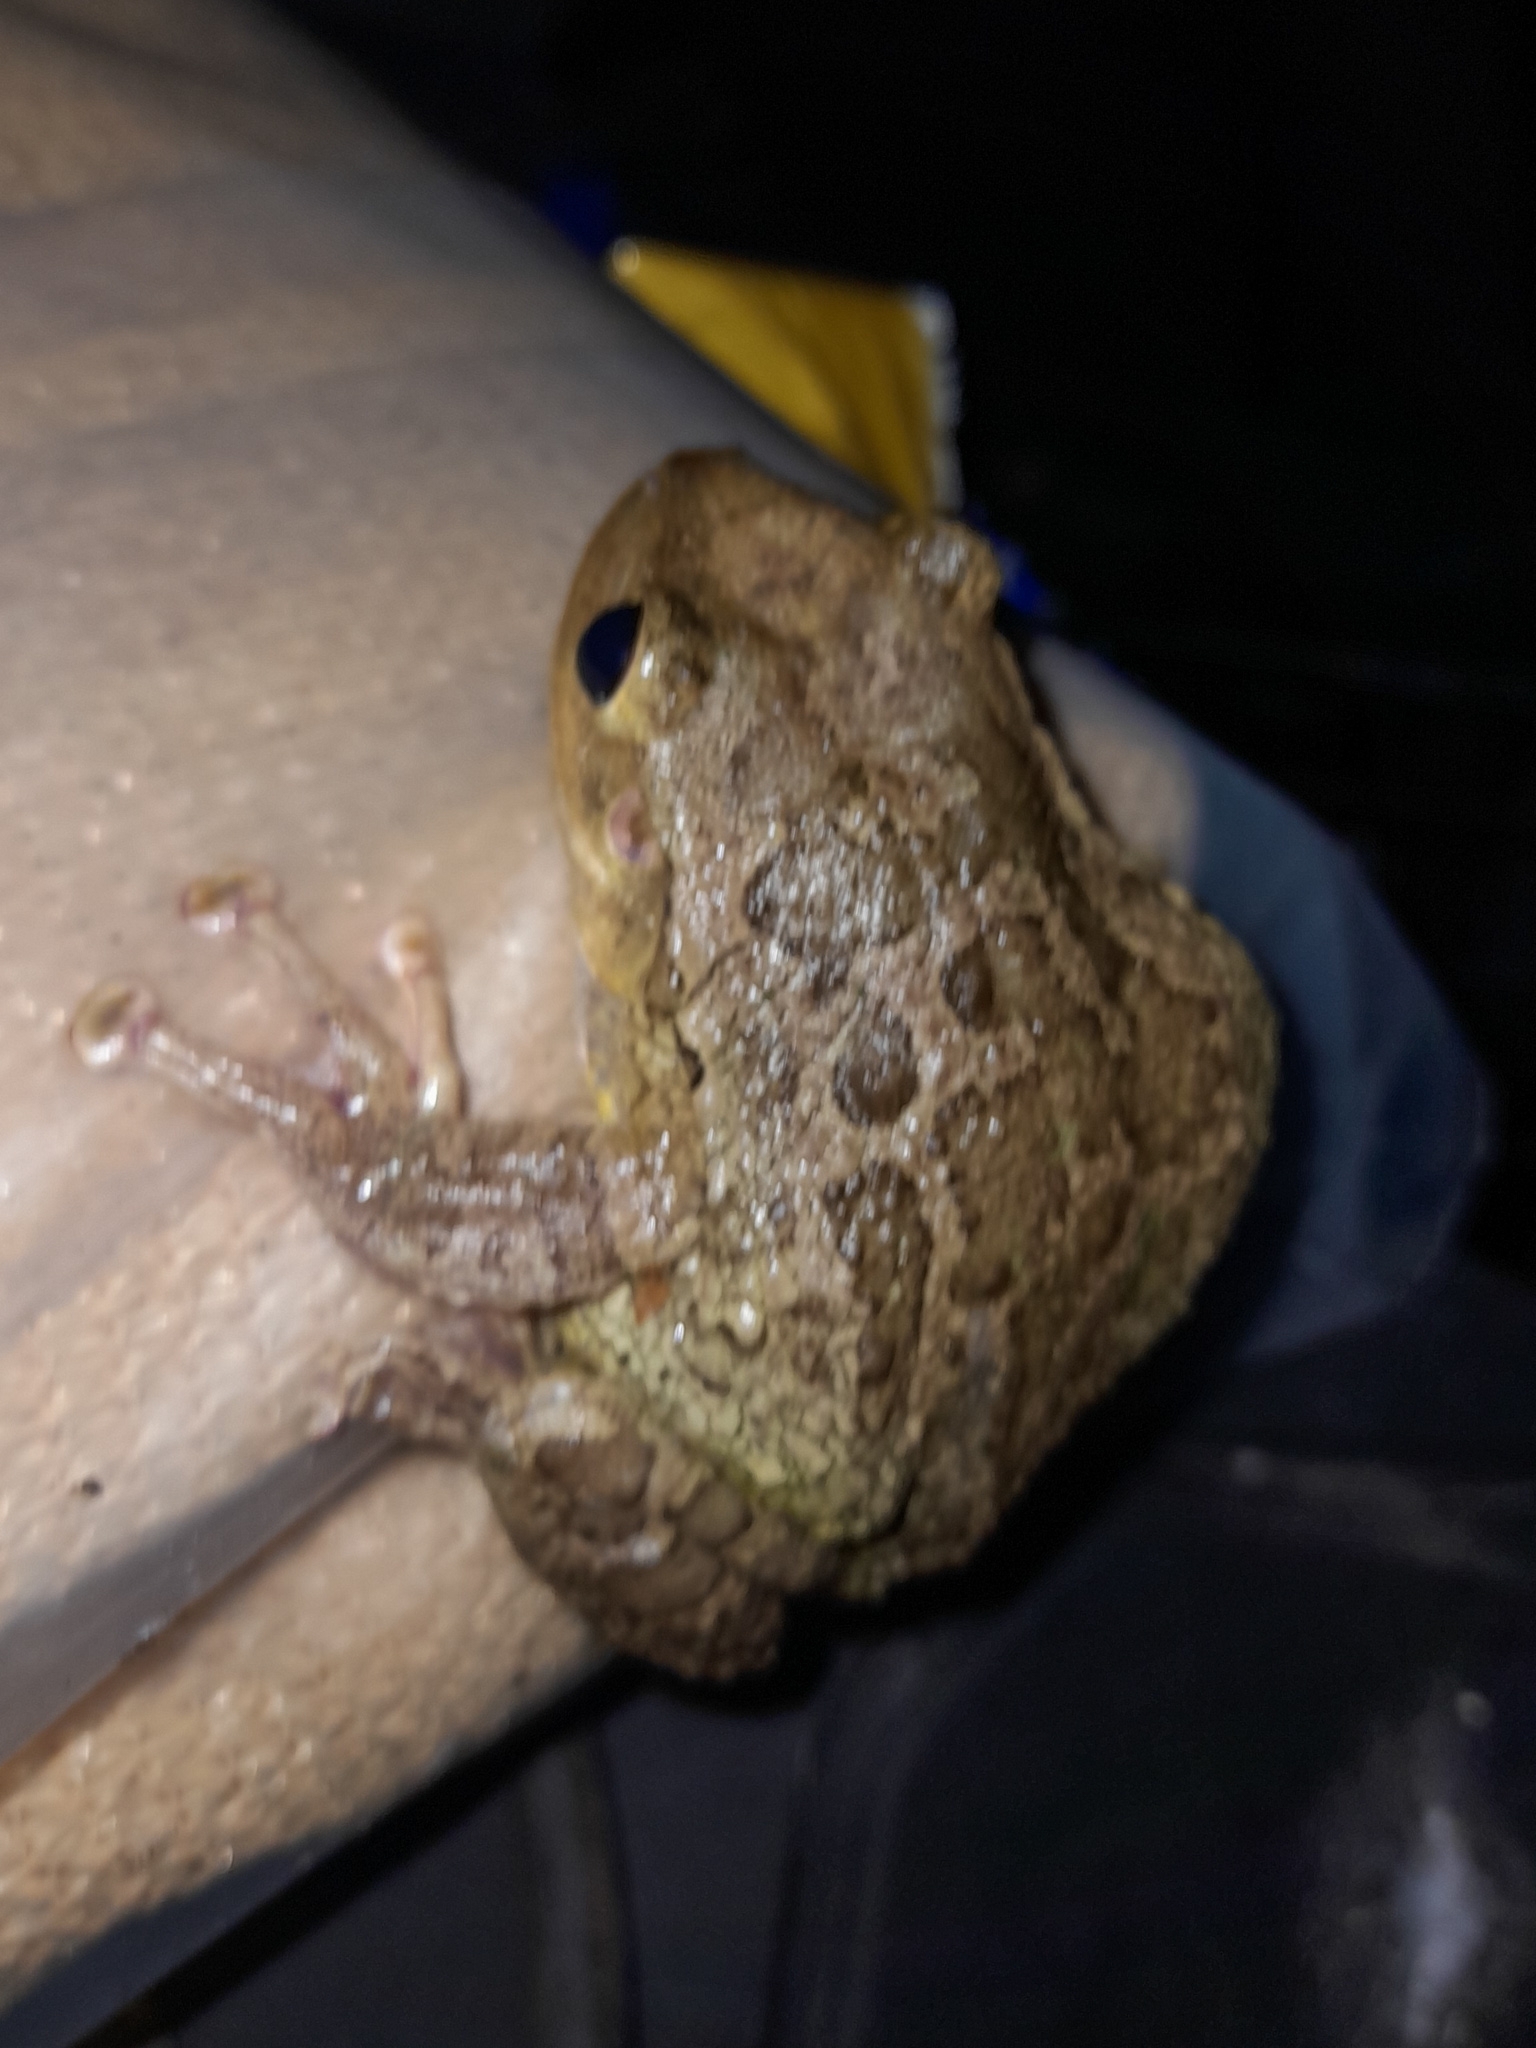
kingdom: Animalia
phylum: Chordata
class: Amphibia
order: Anura
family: Hylidae
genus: Osteopilus
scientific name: Osteopilus septentrionalis
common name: Cuban treefrog
